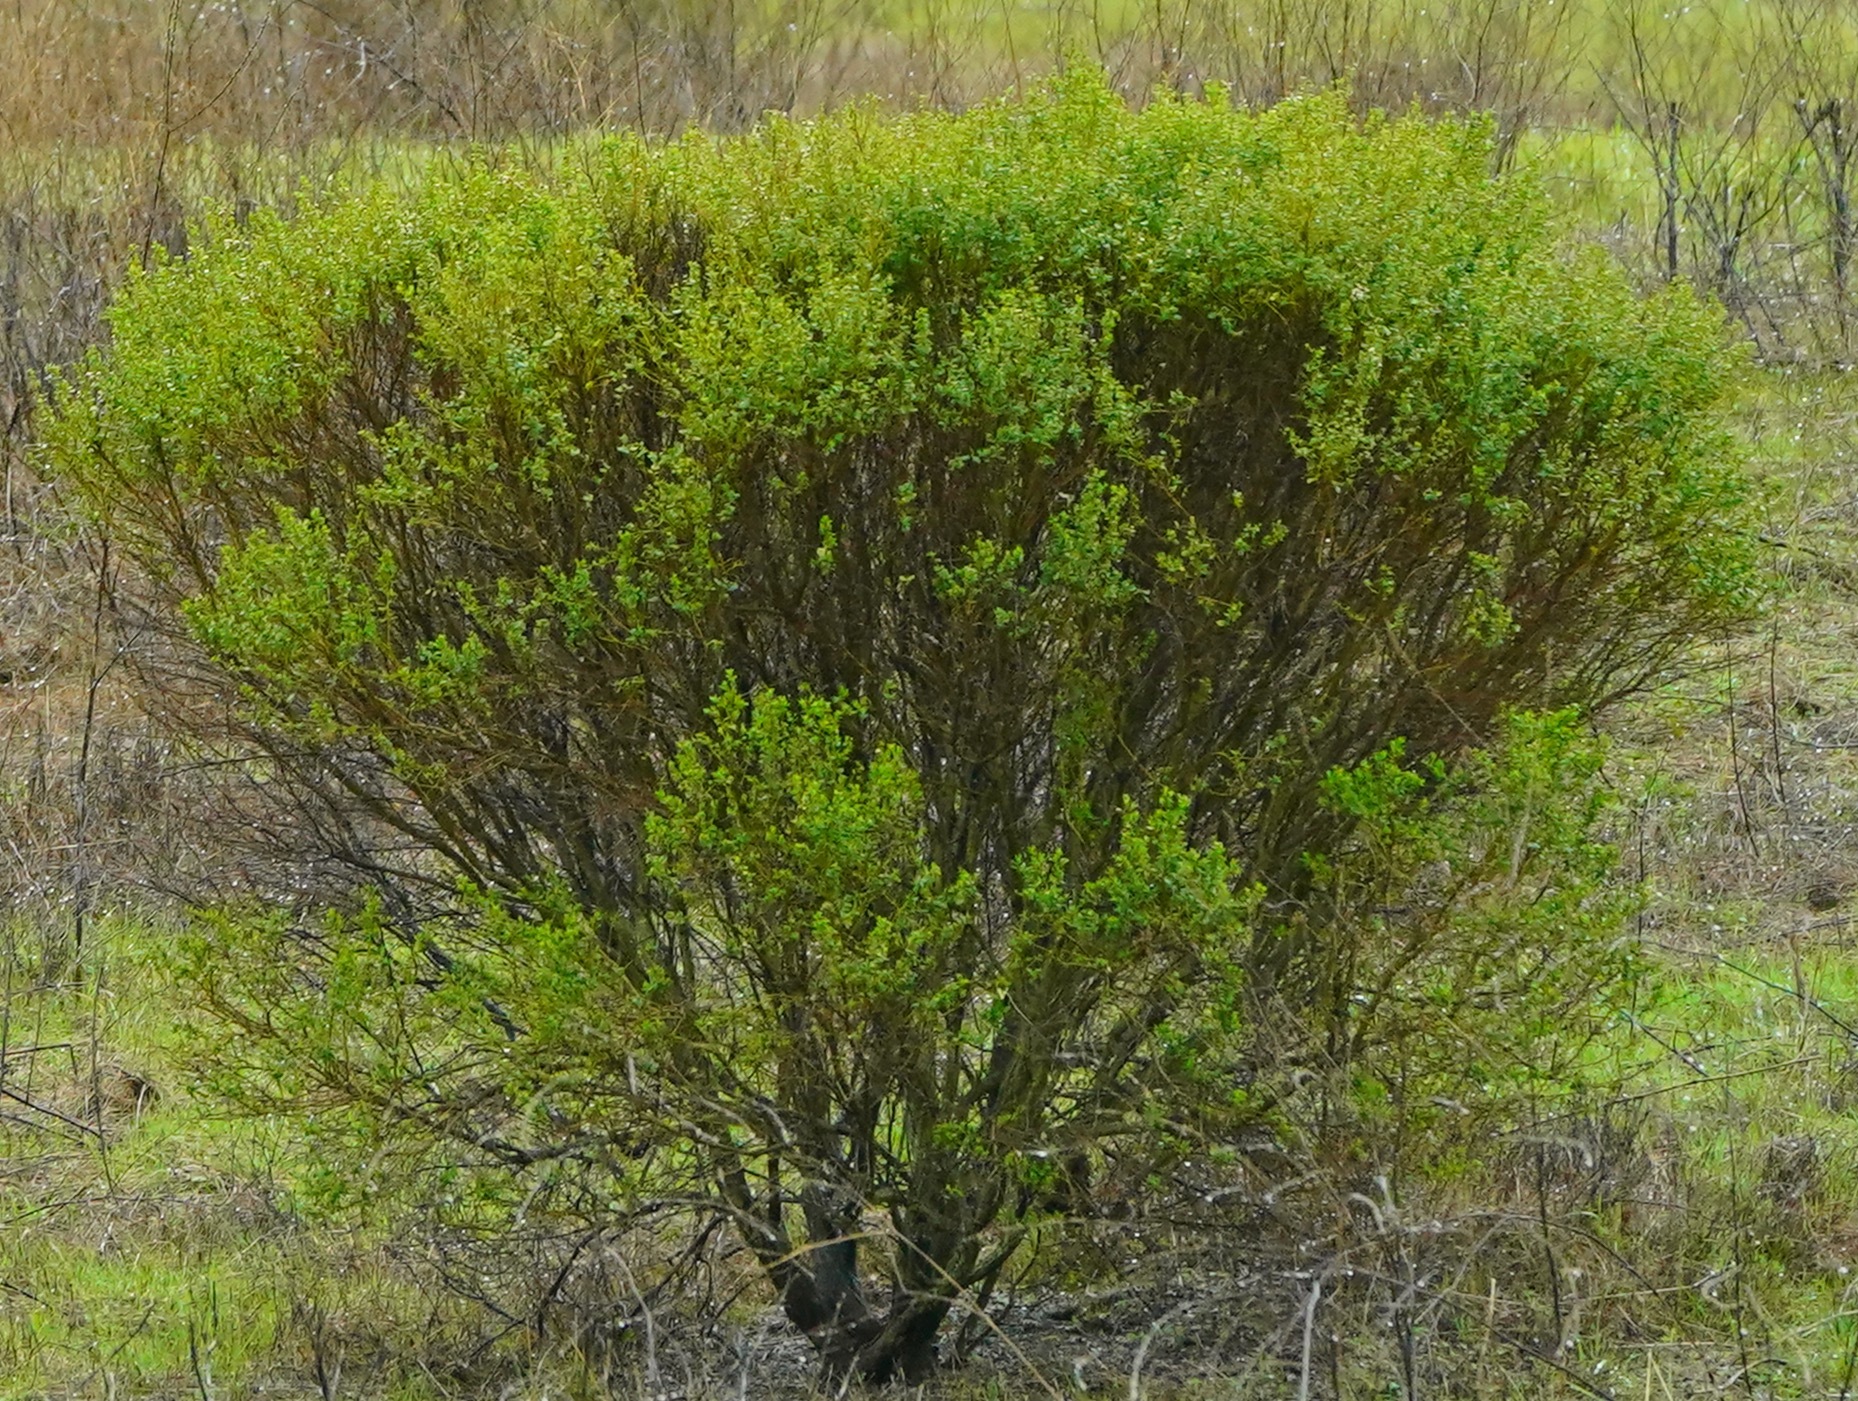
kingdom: Plantae
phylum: Tracheophyta
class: Magnoliopsida
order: Asterales
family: Asteraceae
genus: Baccharis
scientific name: Baccharis pilularis
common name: Coyotebrush
